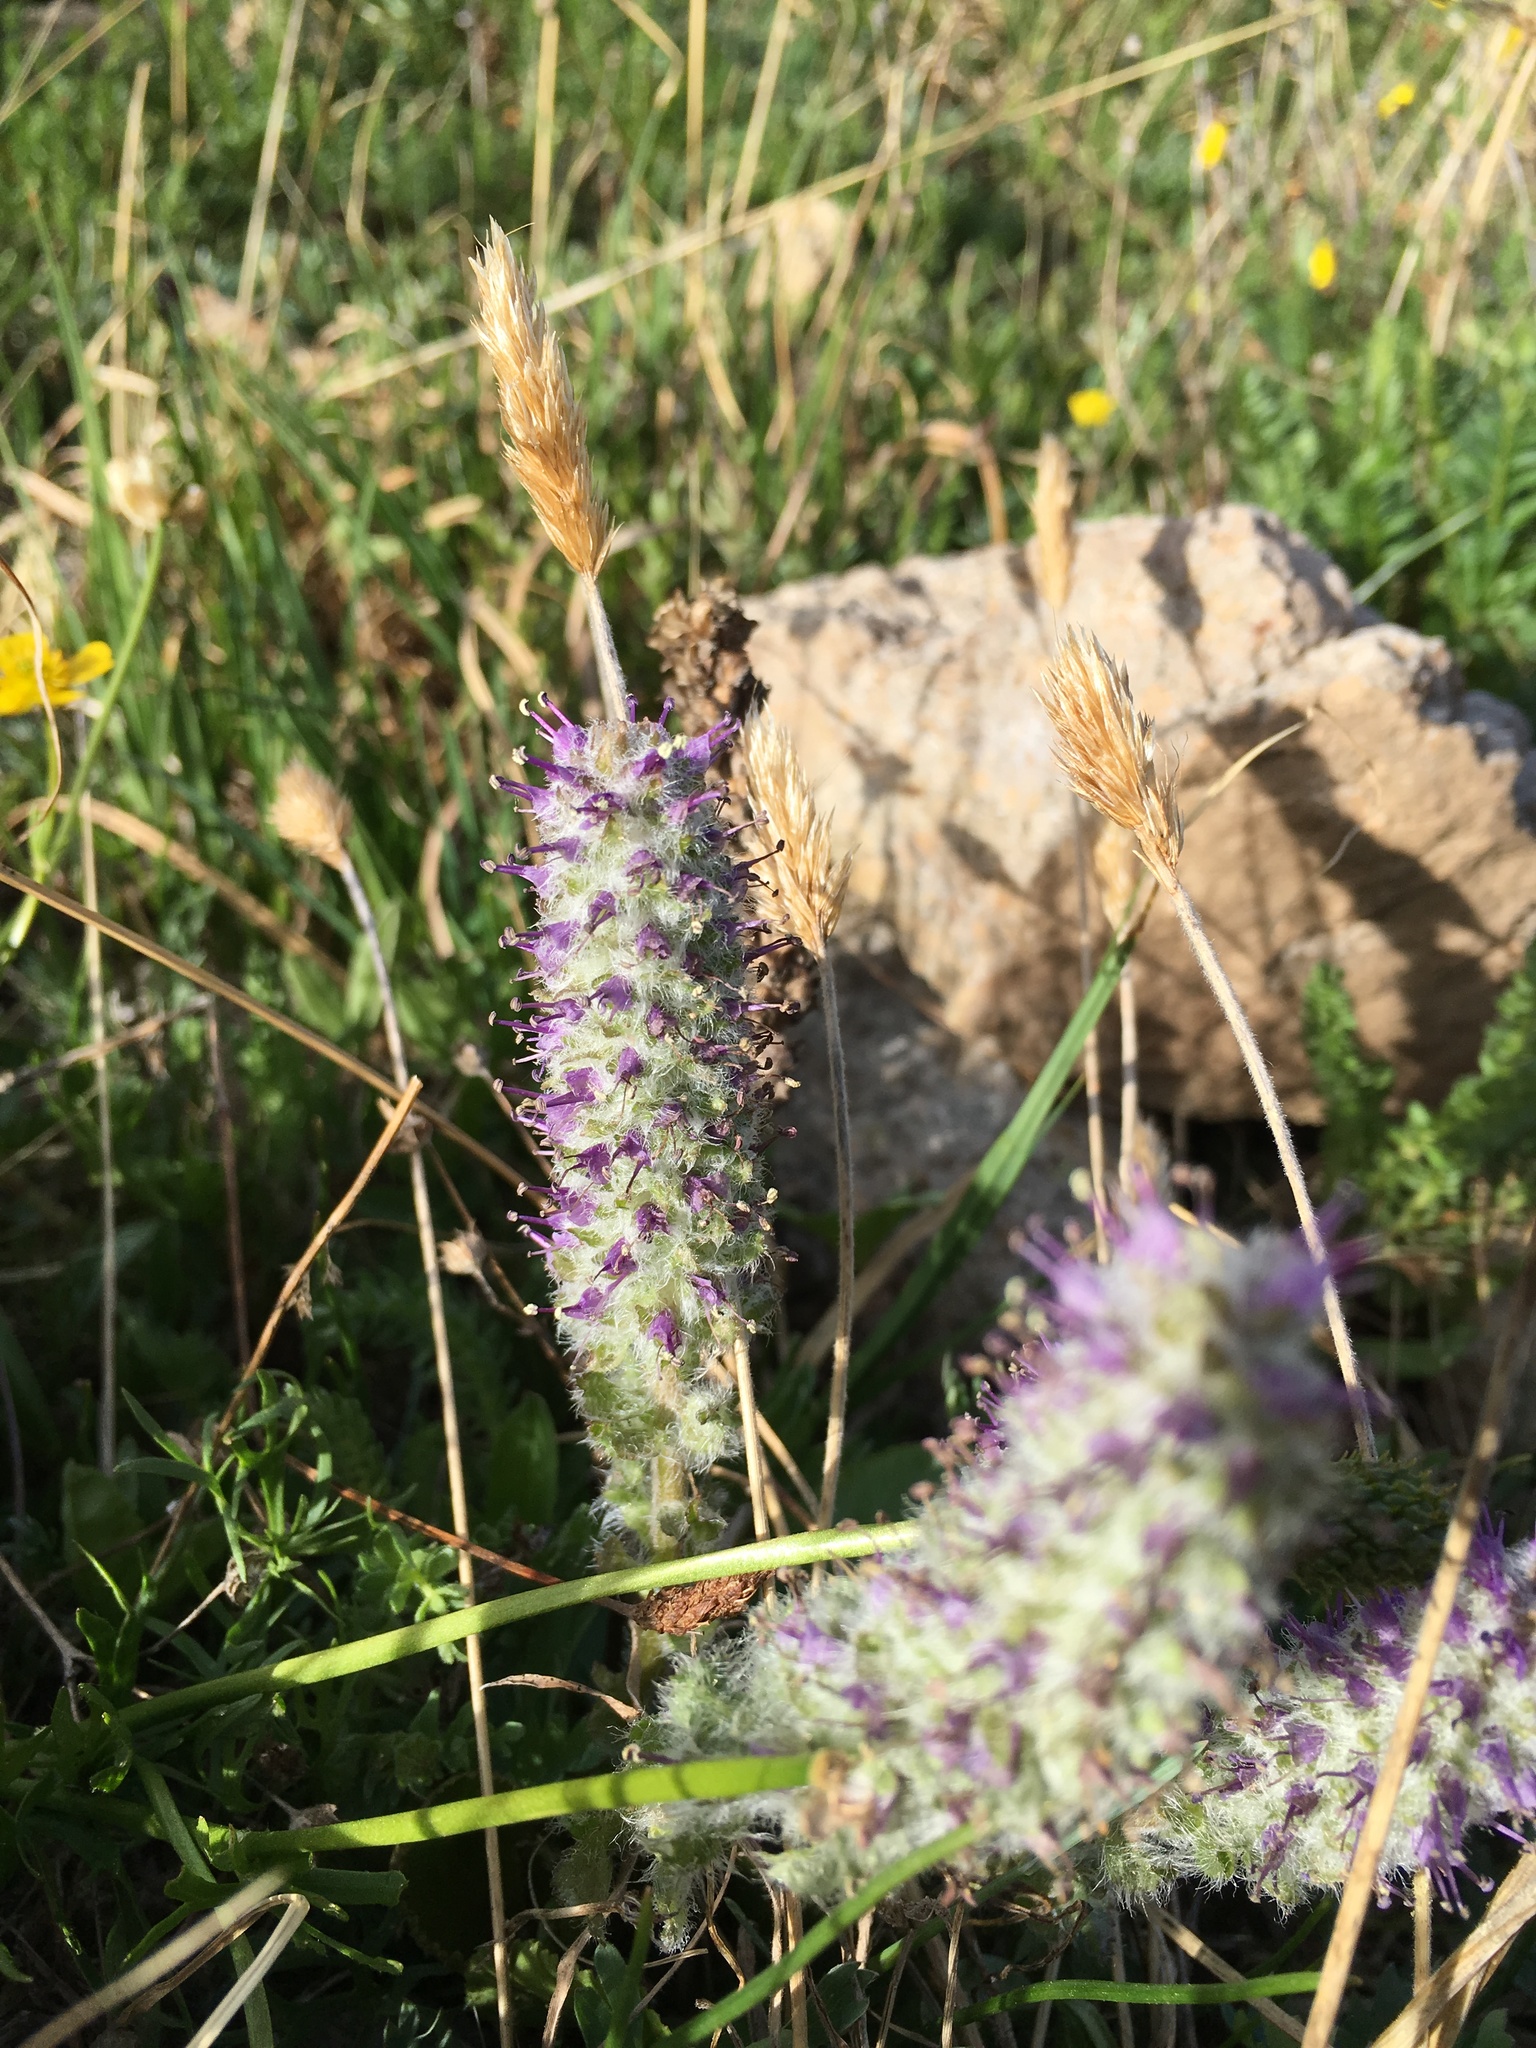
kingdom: Plantae
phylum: Tracheophyta
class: Magnoliopsida
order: Lamiales
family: Plantaginaceae
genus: Synthyris
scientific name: Synthyris alpina
